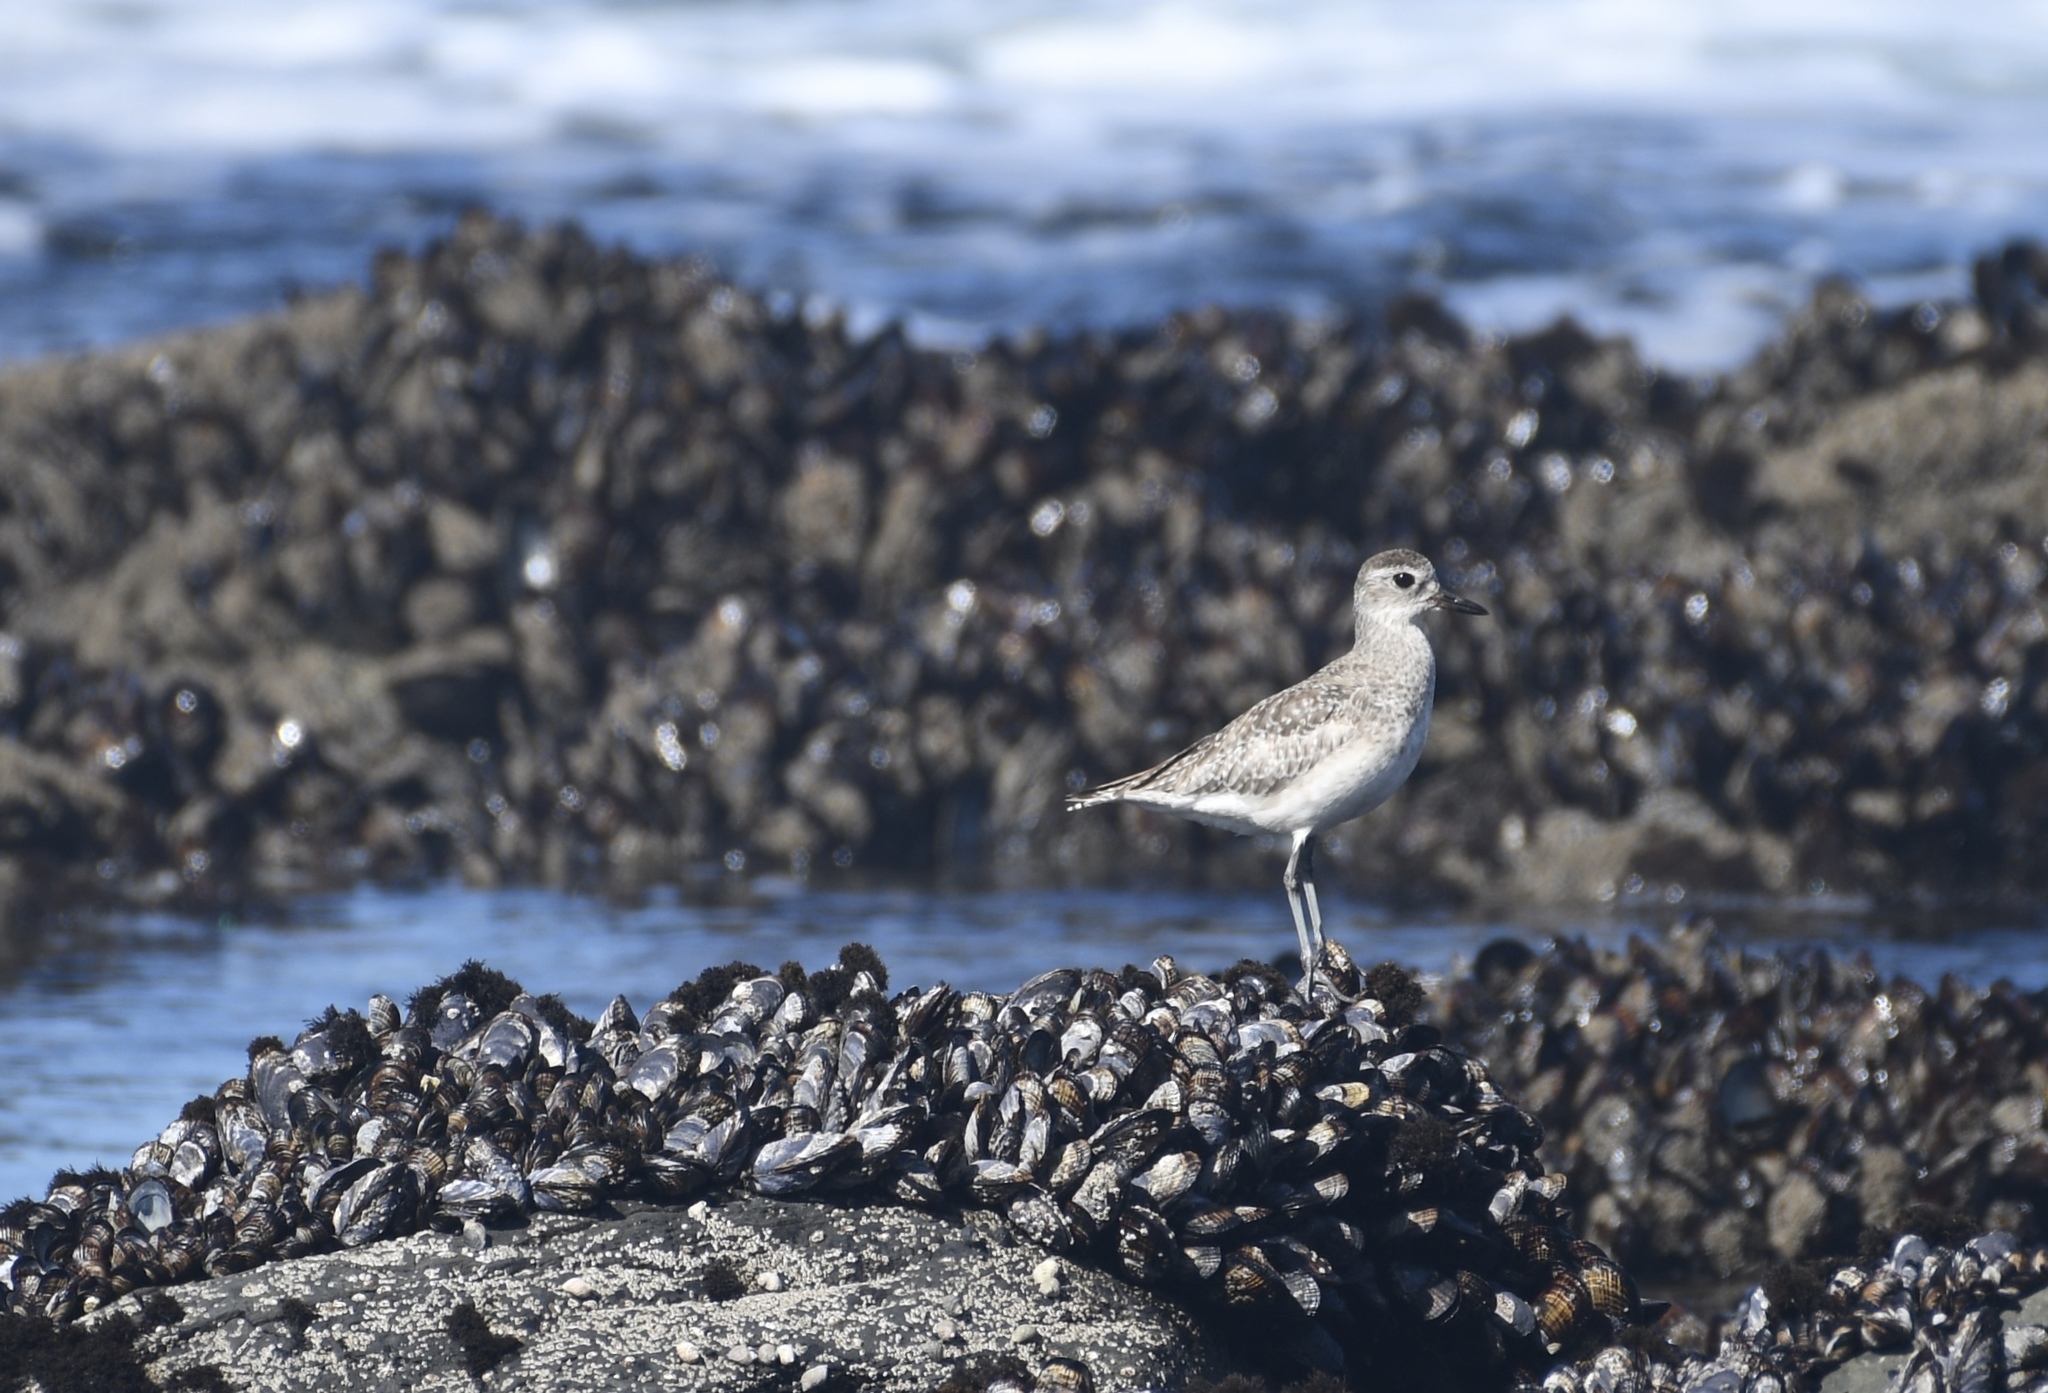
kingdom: Animalia
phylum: Chordata
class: Aves
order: Charadriiformes
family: Charadriidae
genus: Pluvialis
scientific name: Pluvialis squatarola
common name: Grey plover
